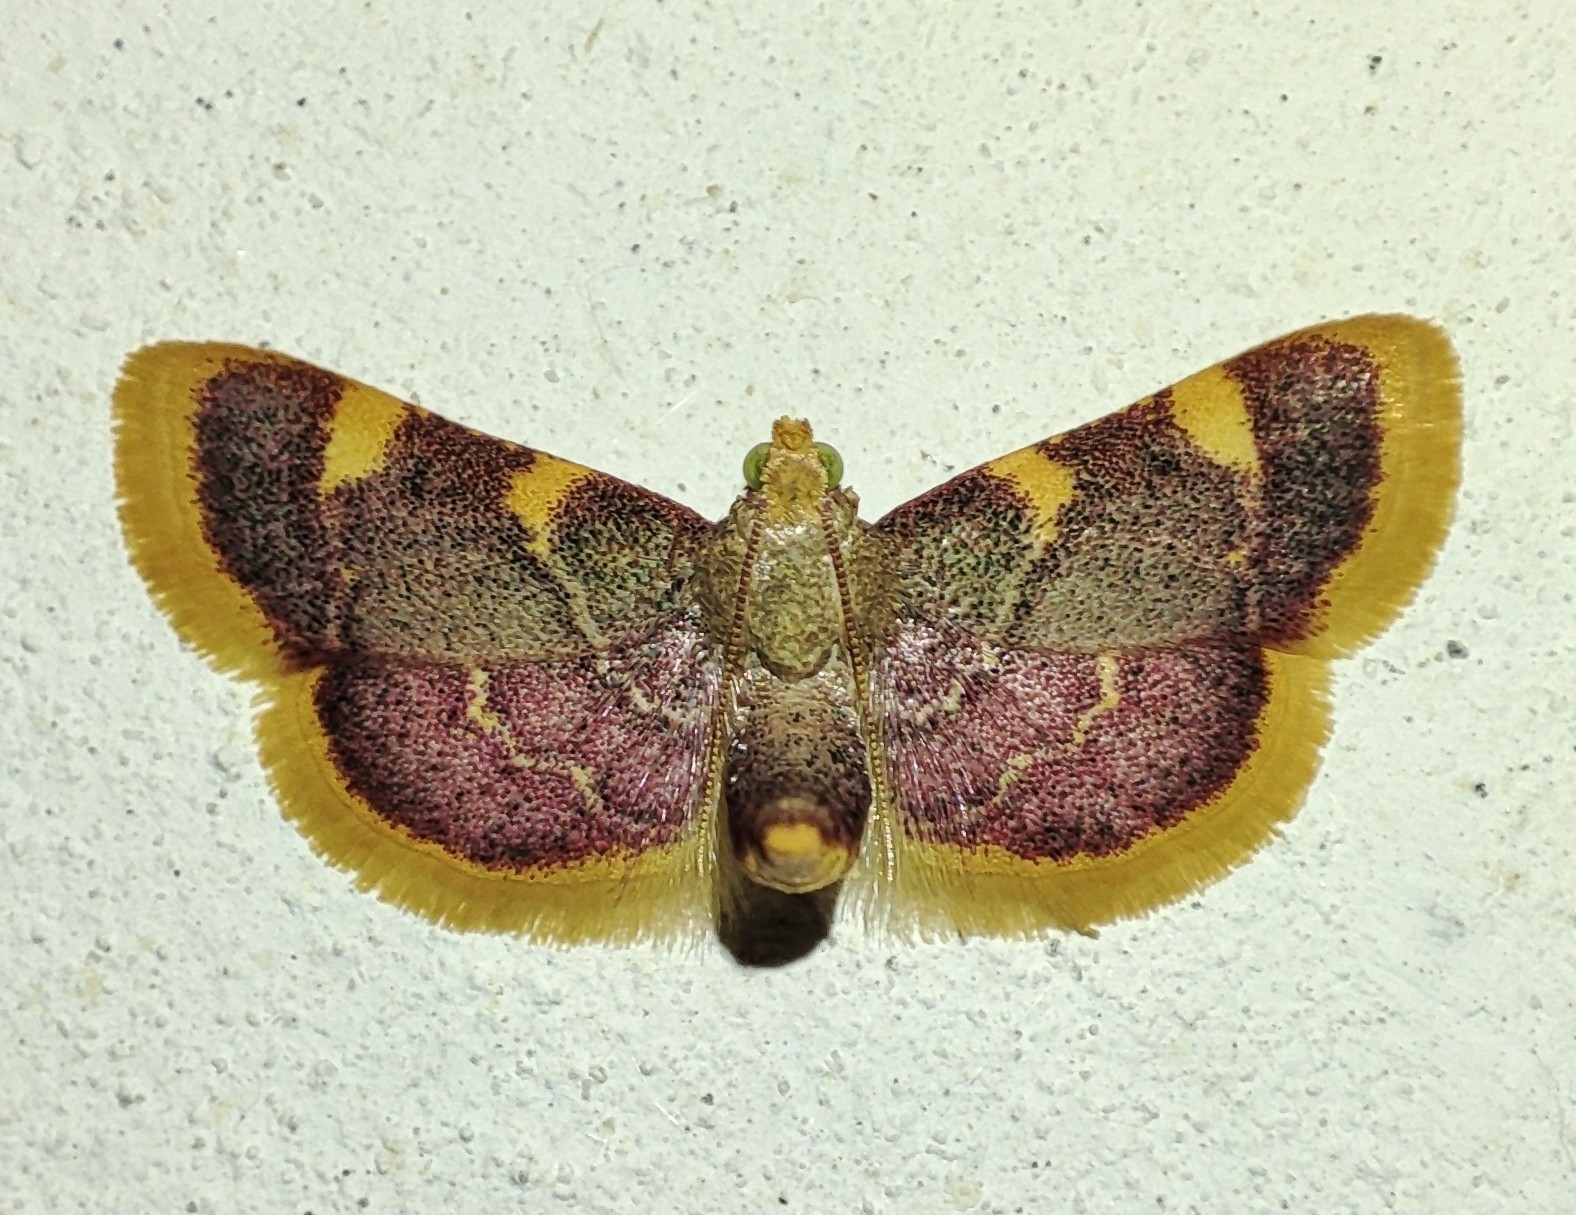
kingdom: Animalia
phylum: Arthropoda
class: Insecta
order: Lepidoptera
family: Pyralidae
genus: Hypsopygia
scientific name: Hypsopygia costalis
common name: Gold triangle
